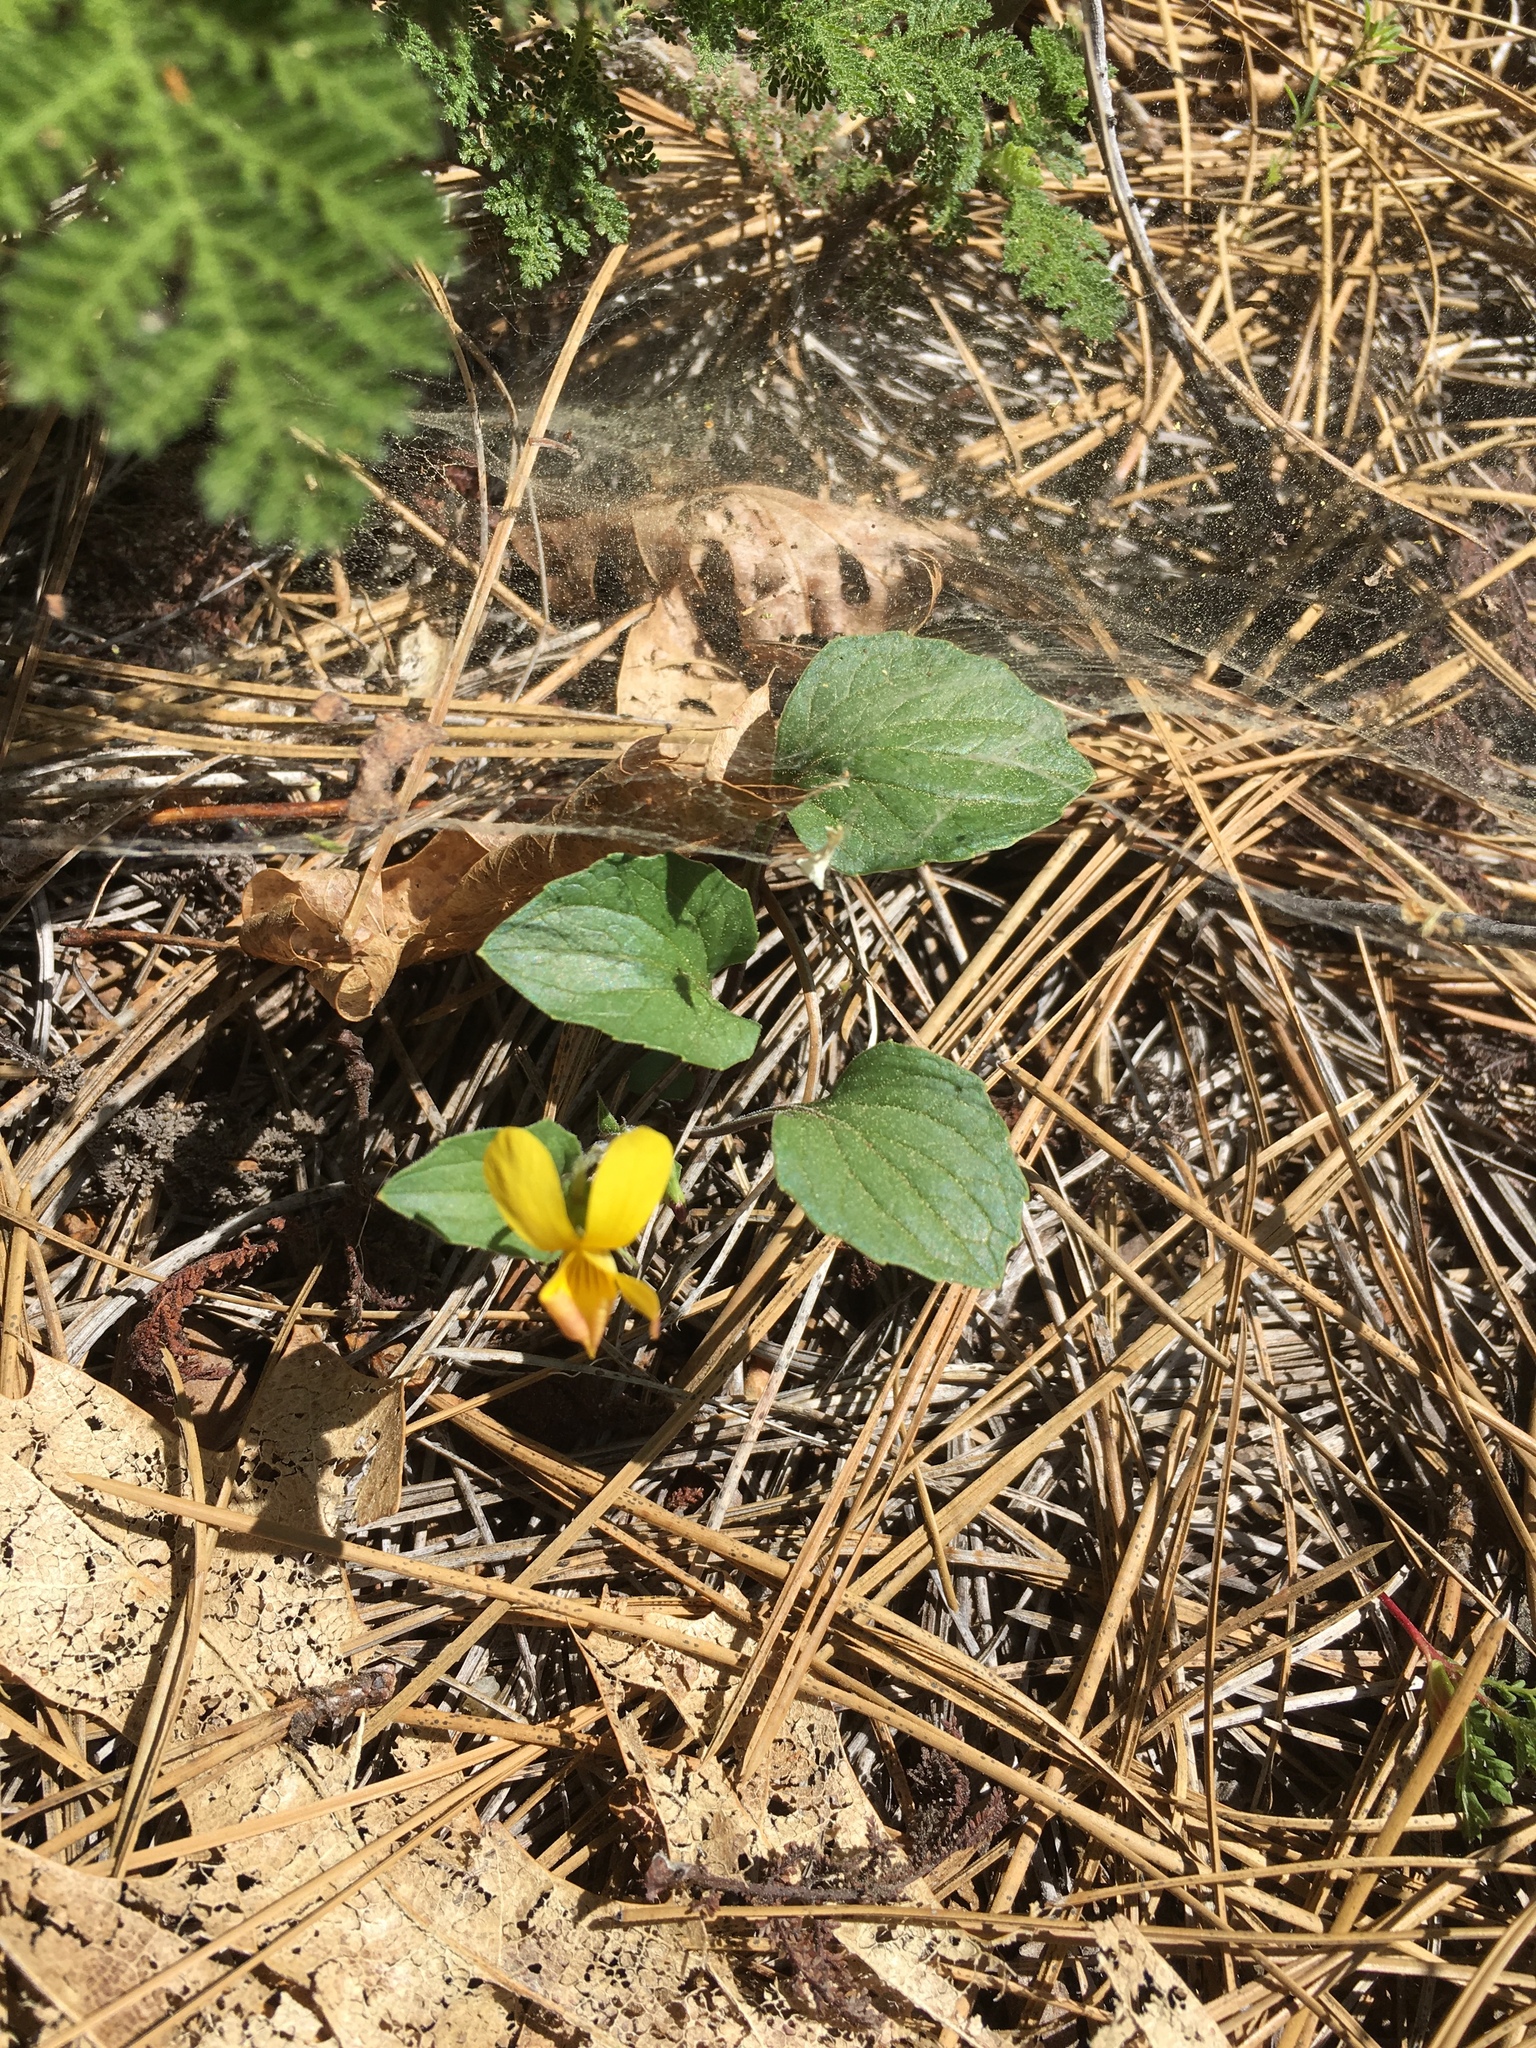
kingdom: Plantae
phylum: Tracheophyta
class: Magnoliopsida
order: Malpighiales
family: Violaceae
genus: Viola
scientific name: Viola purpurea
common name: Pine violet
